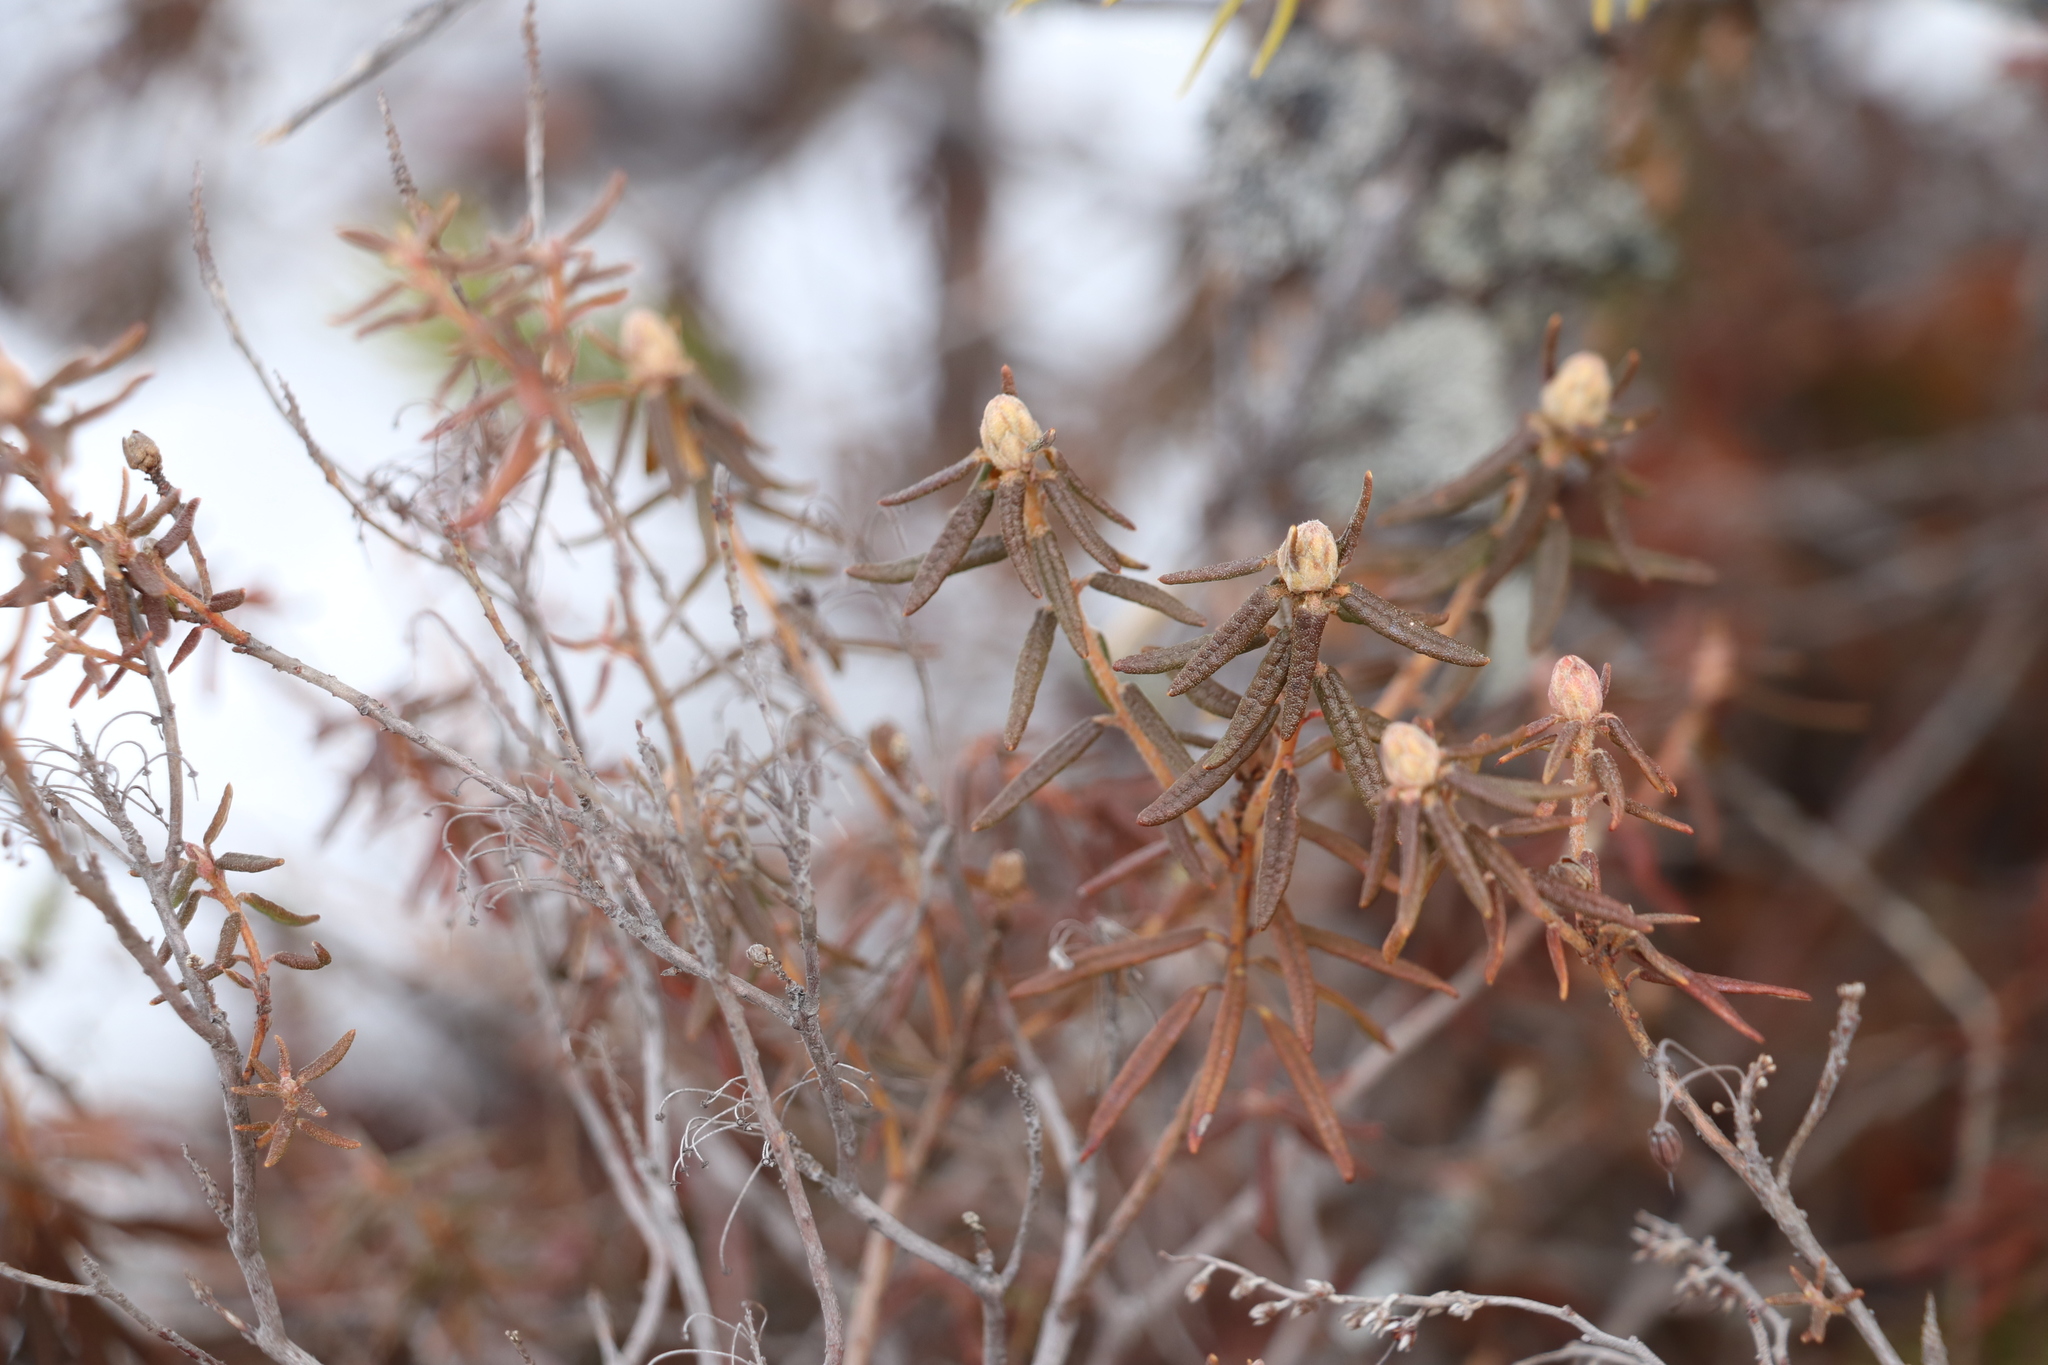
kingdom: Plantae
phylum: Tracheophyta
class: Magnoliopsida
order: Ericales
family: Ericaceae
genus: Rhododendron
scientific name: Rhododendron tomentosum
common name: Marsh labrador tea
